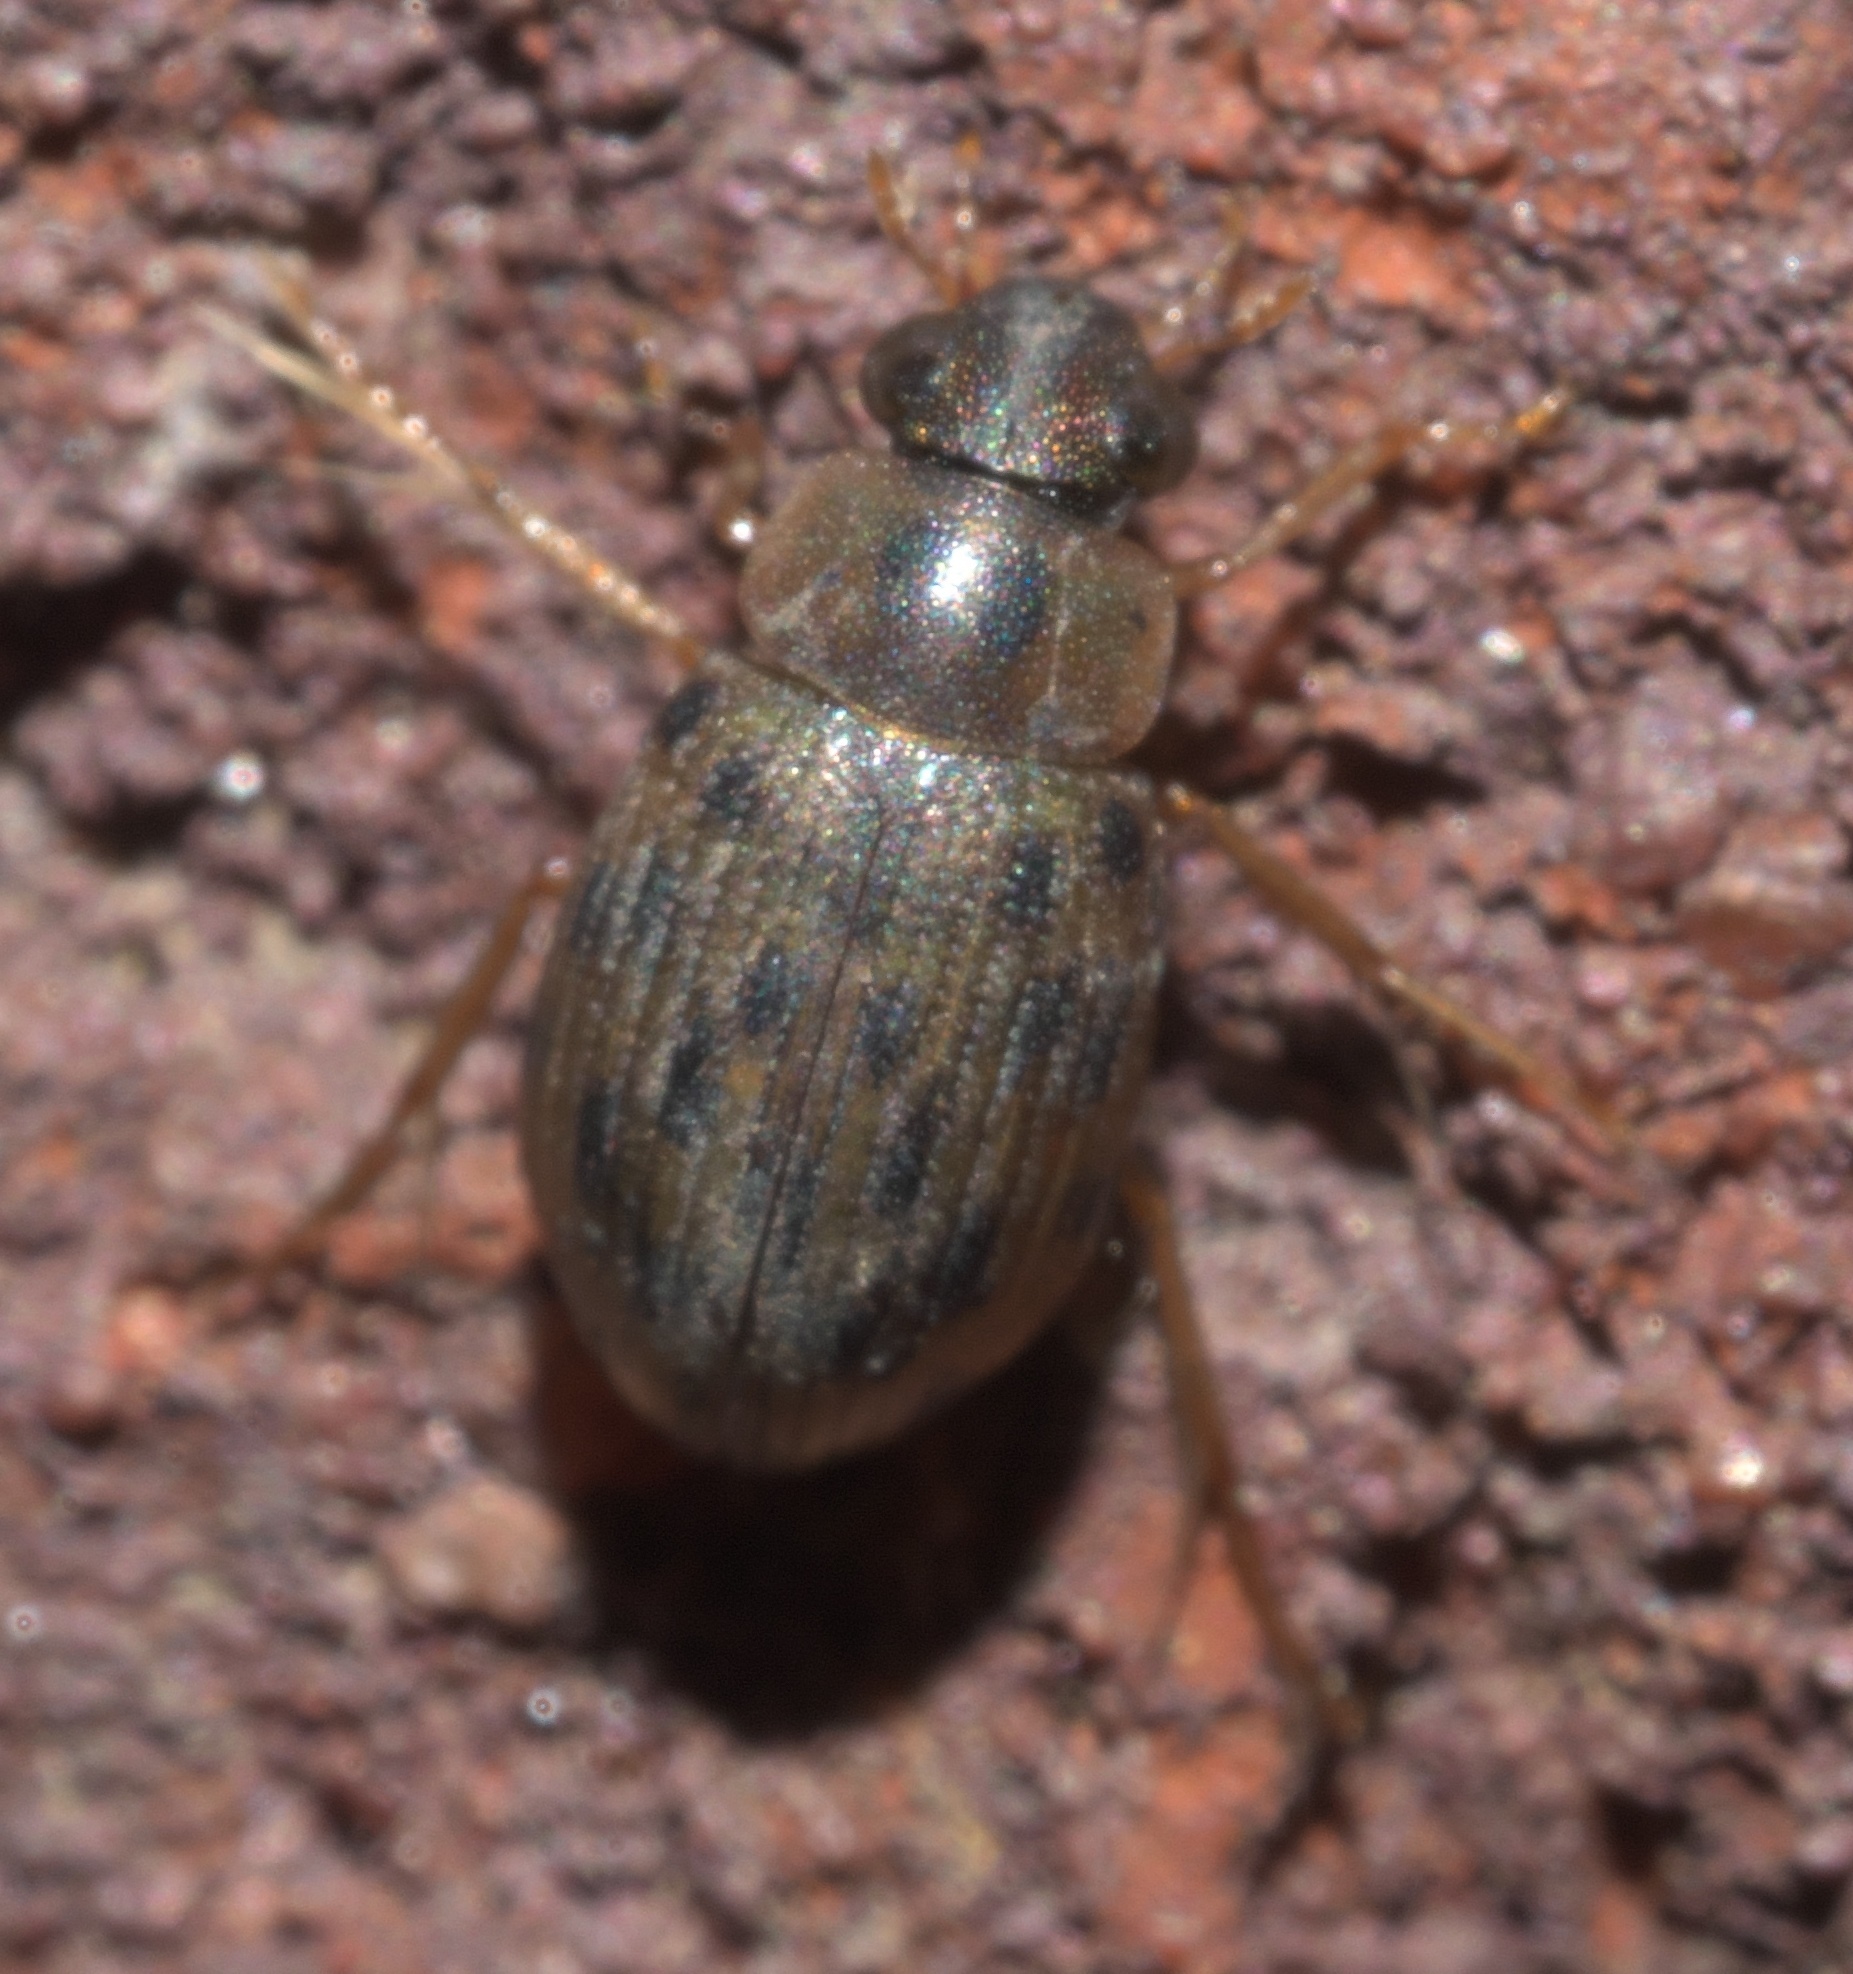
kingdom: Animalia
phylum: Arthropoda
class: Insecta
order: Coleoptera
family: Hydrophilidae
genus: Berosus
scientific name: Berosus pantherinus
